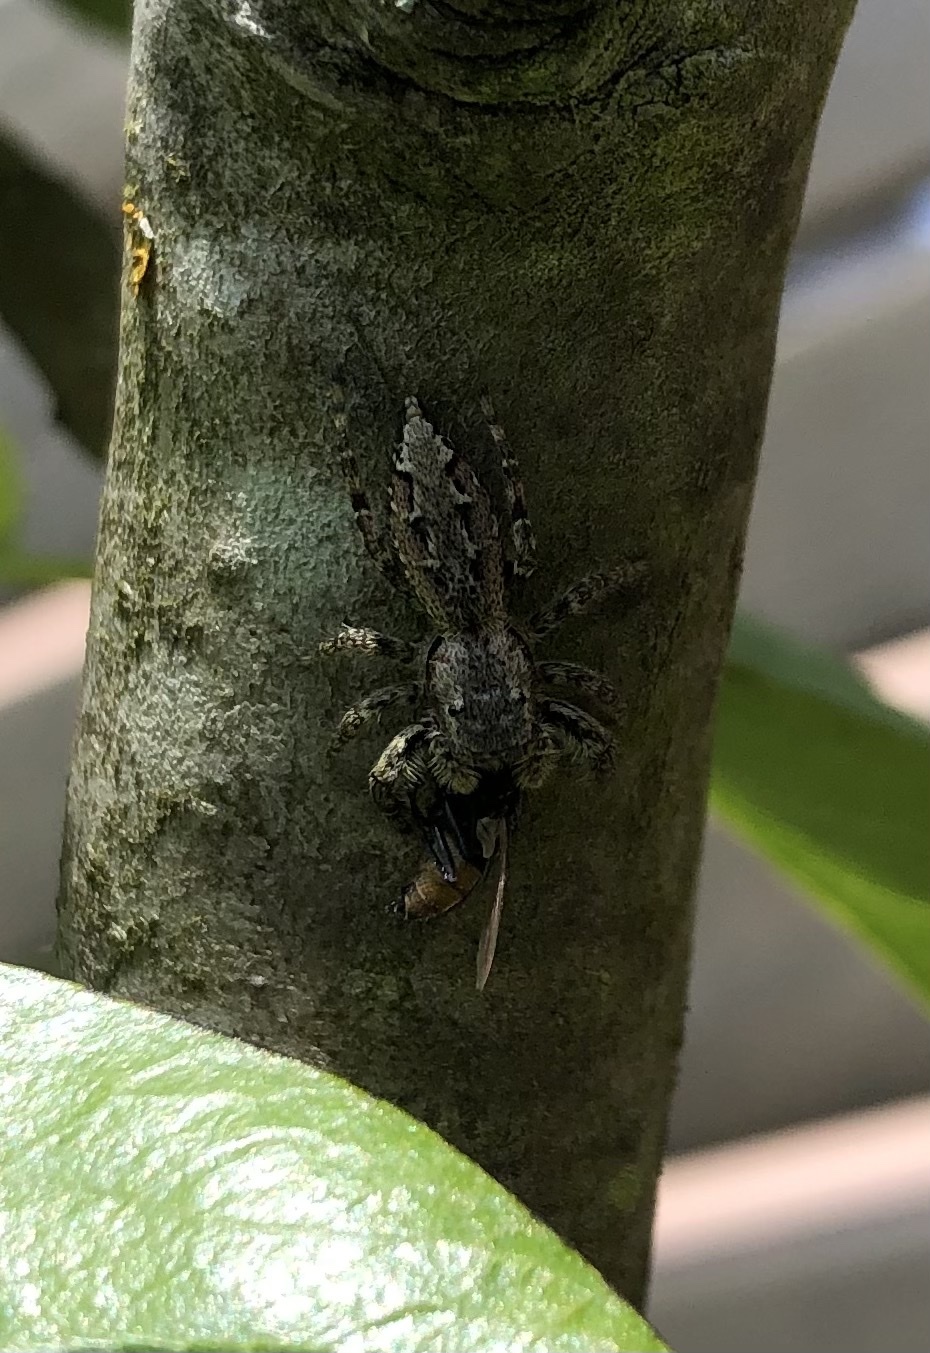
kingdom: Animalia
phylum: Arthropoda
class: Arachnida
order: Araneae
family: Salticidae
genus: Marpissa
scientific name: Marpissa muscosa
